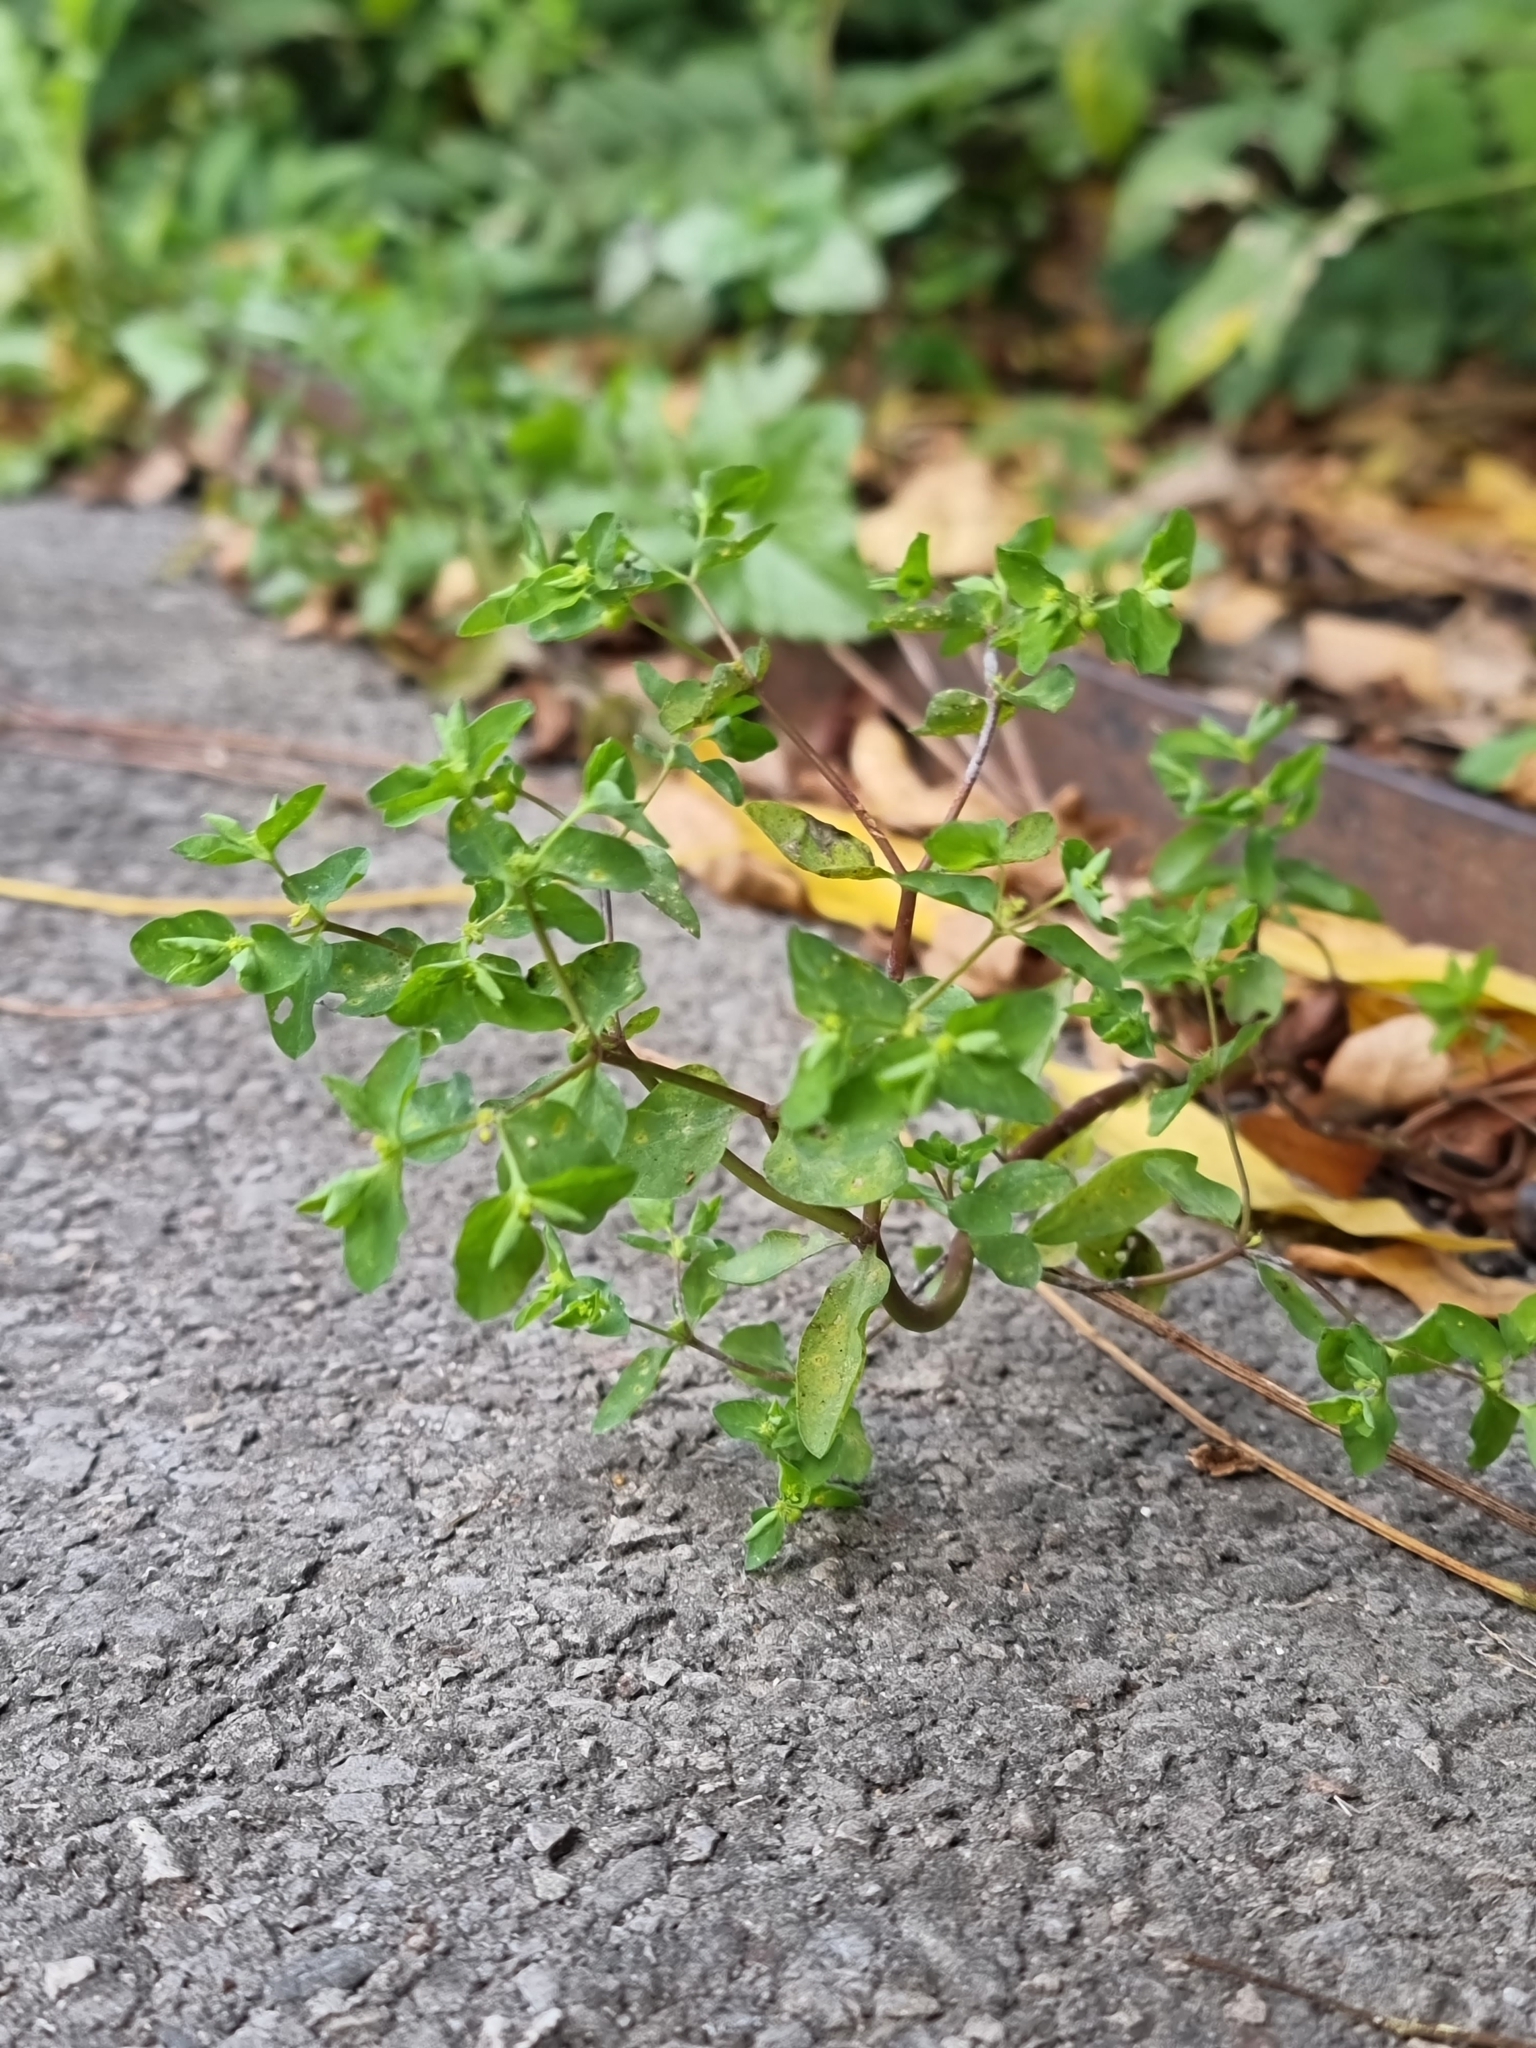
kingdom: Plantae
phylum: Tracheophyta
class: Magnoliopsida
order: Malpighiales
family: Euphorbiaceae
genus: Euphorbia
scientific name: Euphorbia peplus
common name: Petty spurge
